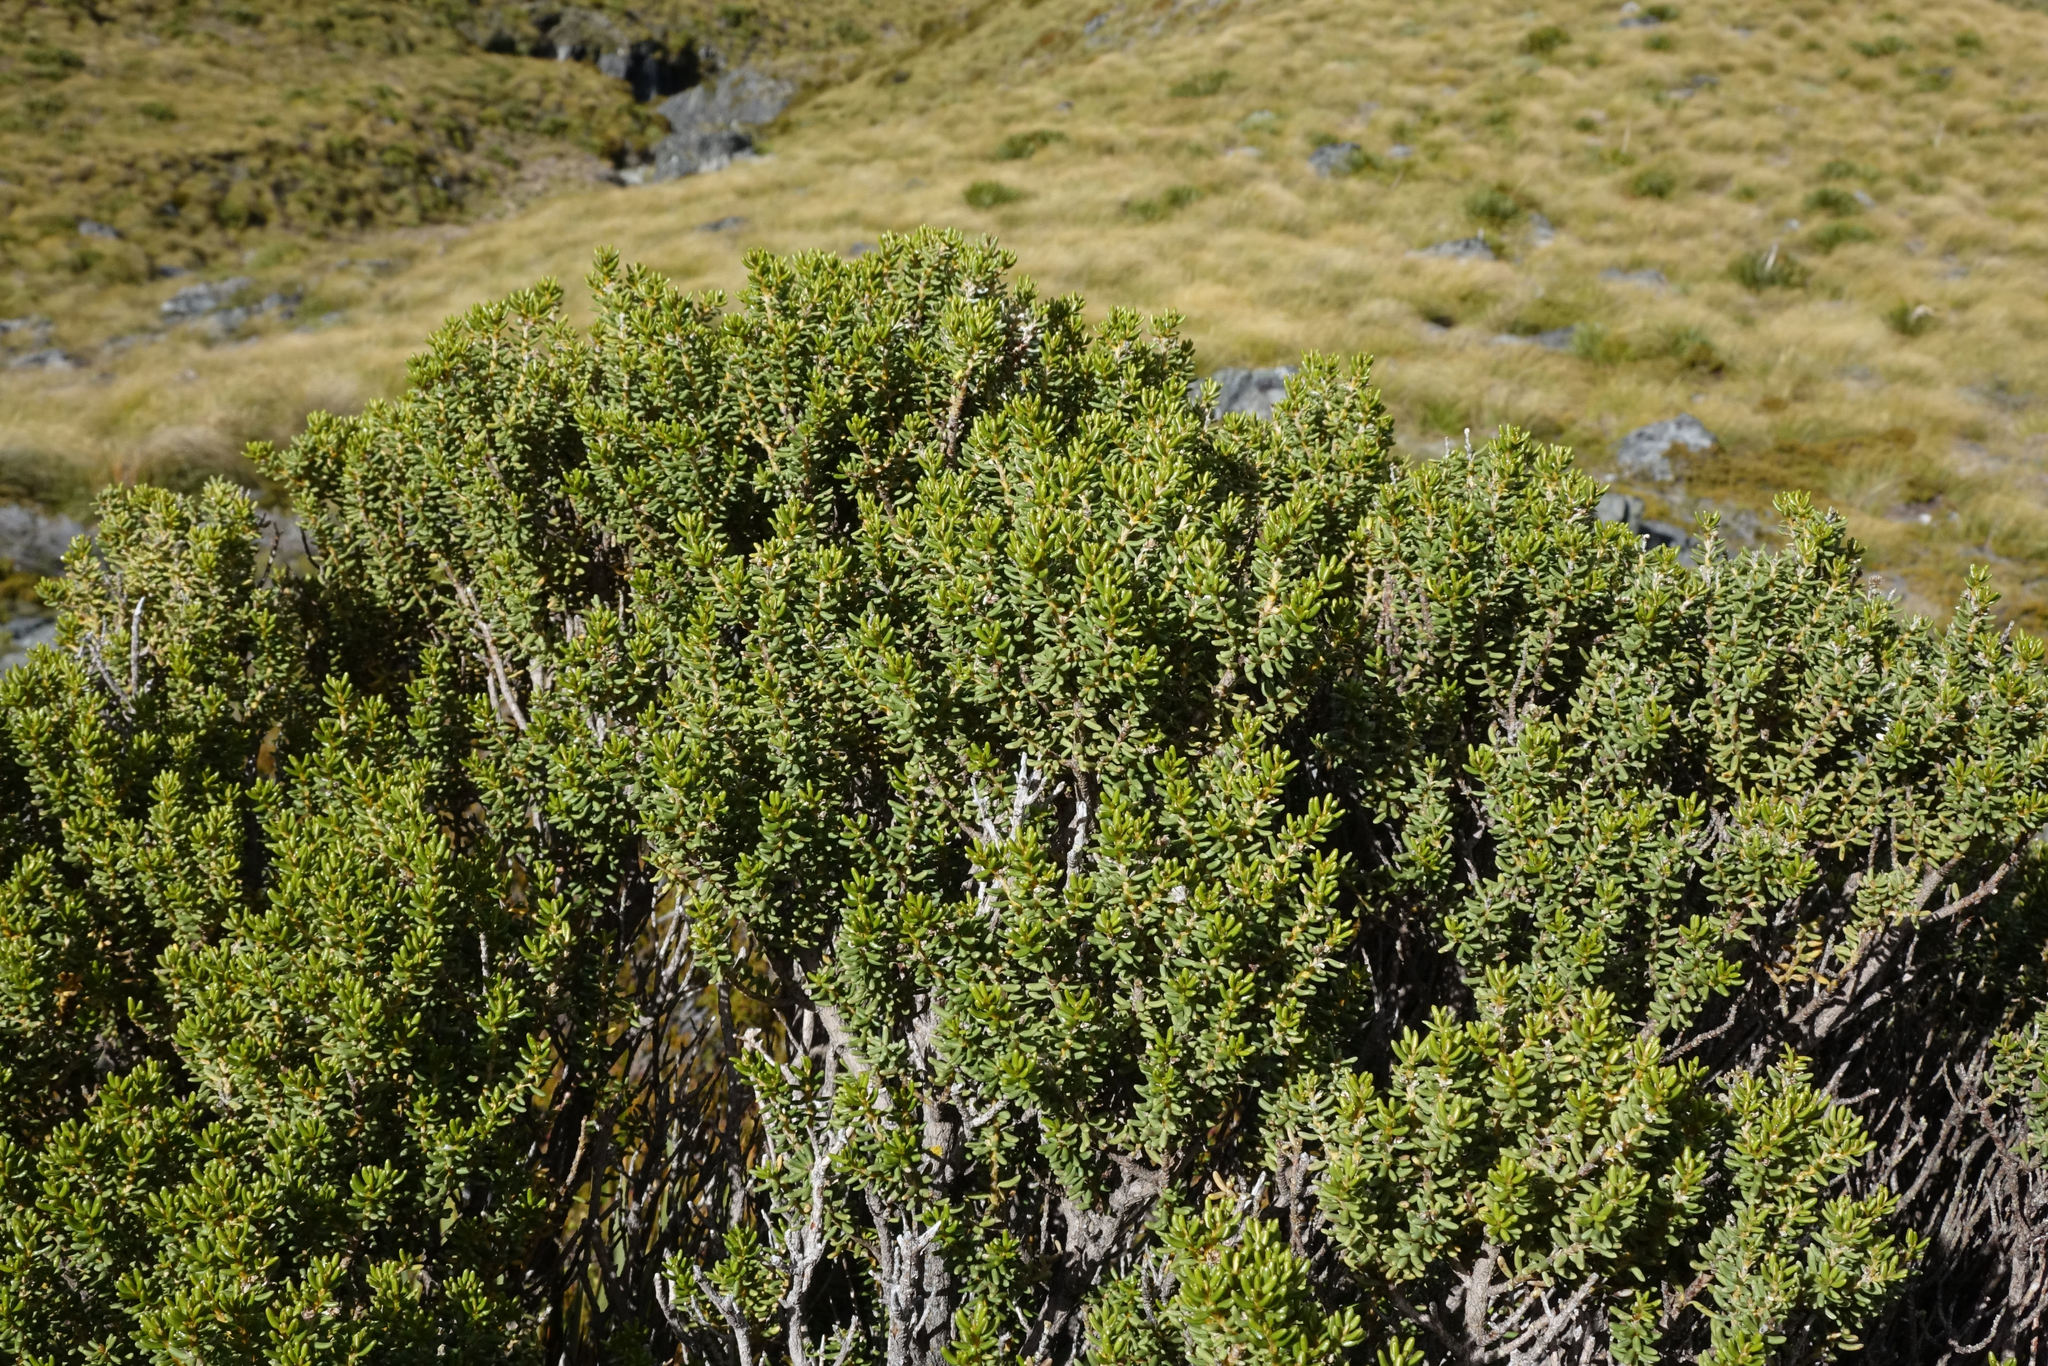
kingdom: Plantae
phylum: Tracheophyta
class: Magnoliopsida
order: Asterales
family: Asteraceae
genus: Olearia
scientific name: Olearia cymbifolia
